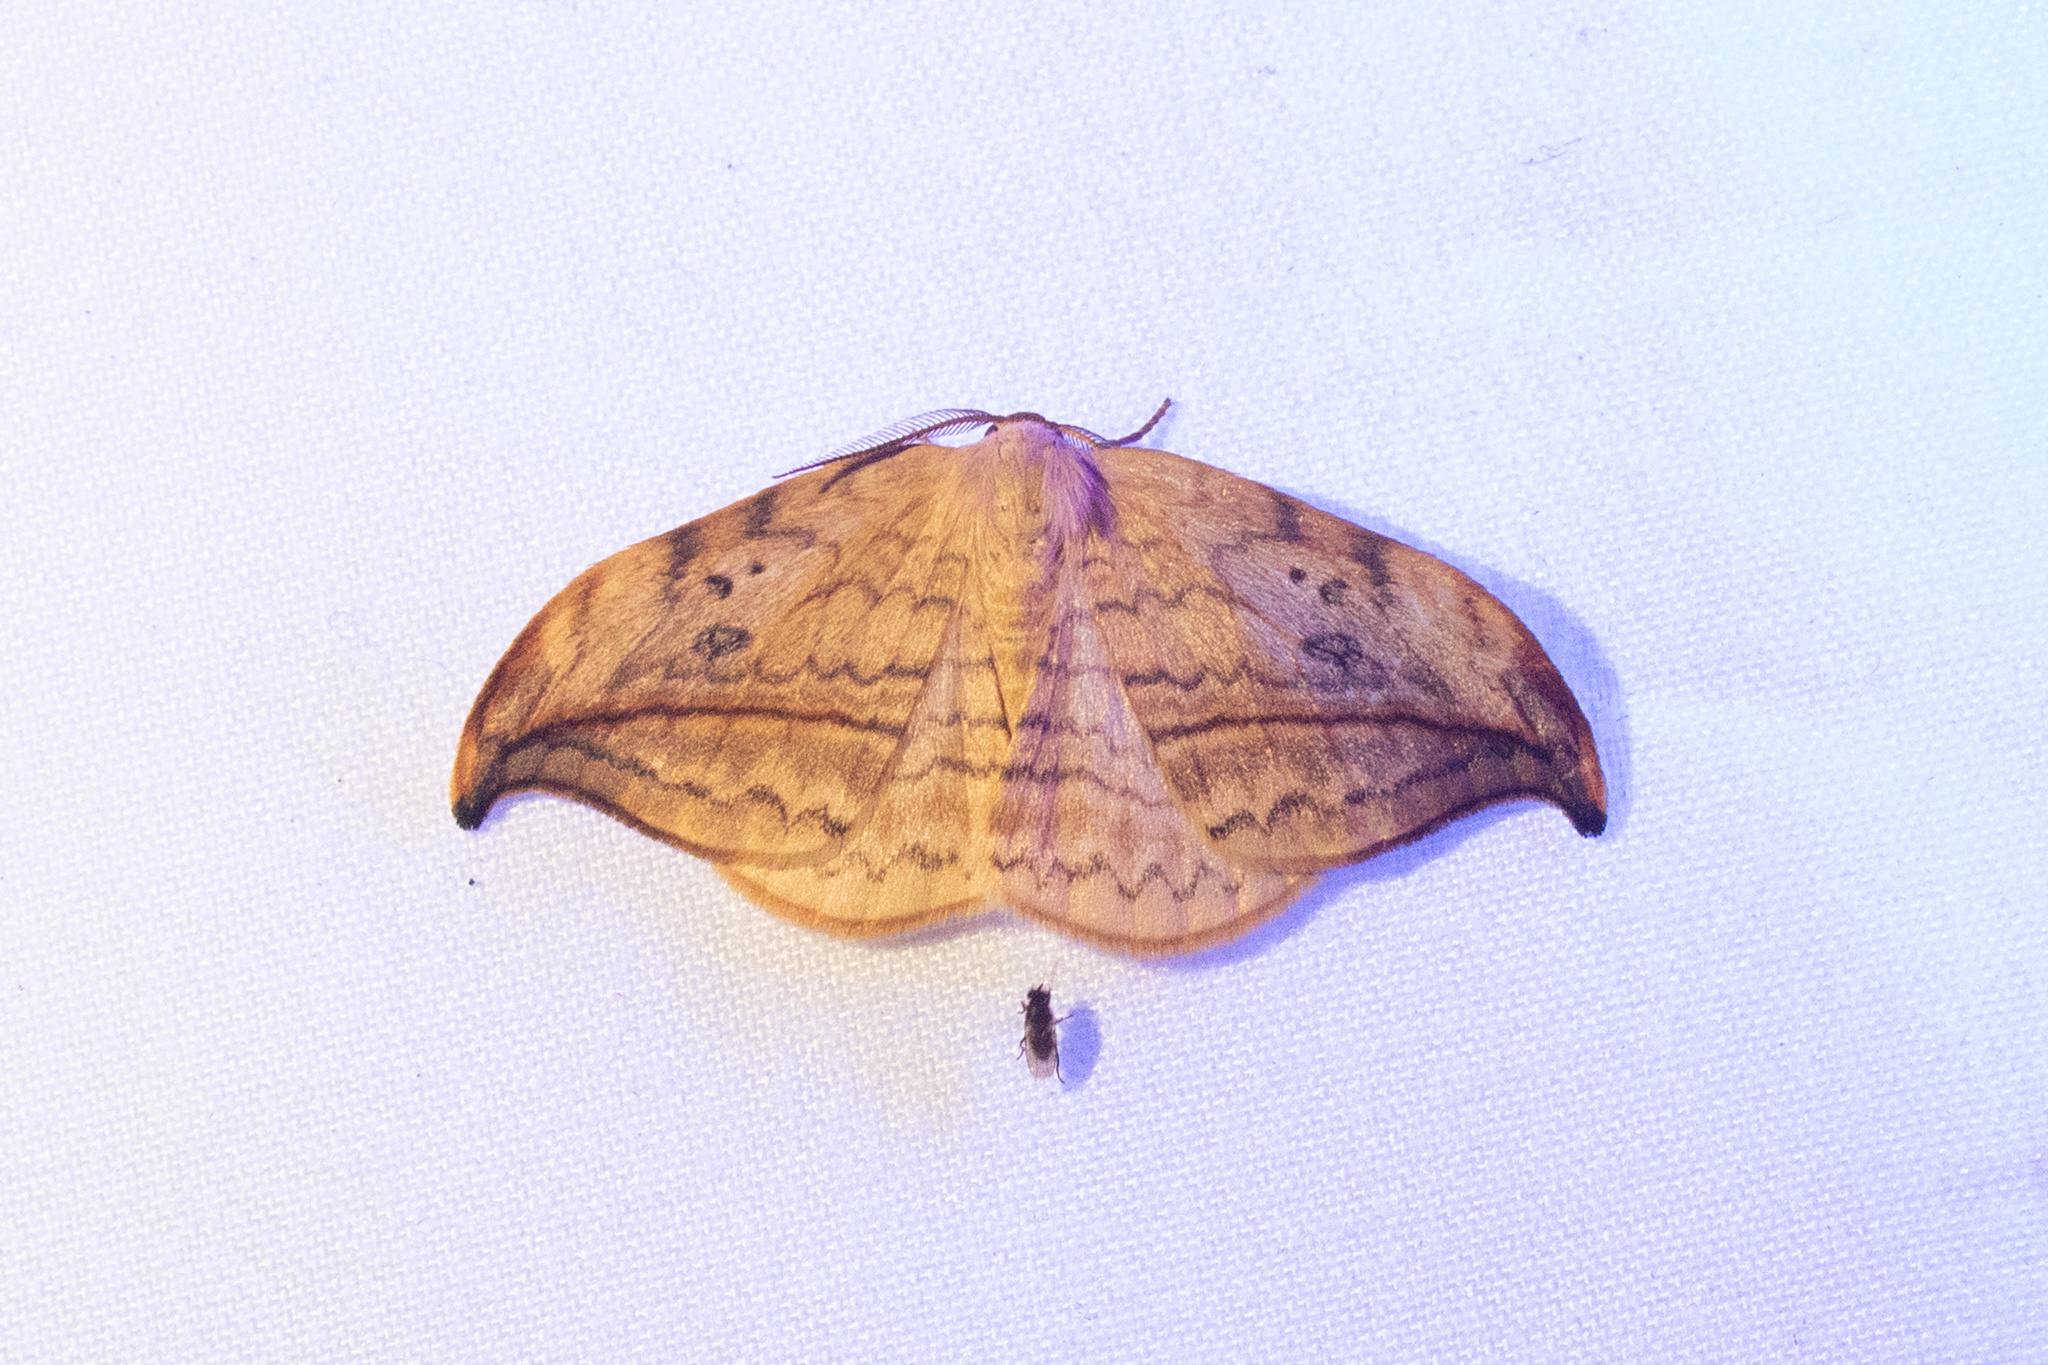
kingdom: Animalia
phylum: Arthropoda
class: Insecta
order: Lepidoptera
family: Drepanidae
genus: Drepana
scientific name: Drepana arcuata
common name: Arched hooktip moth
